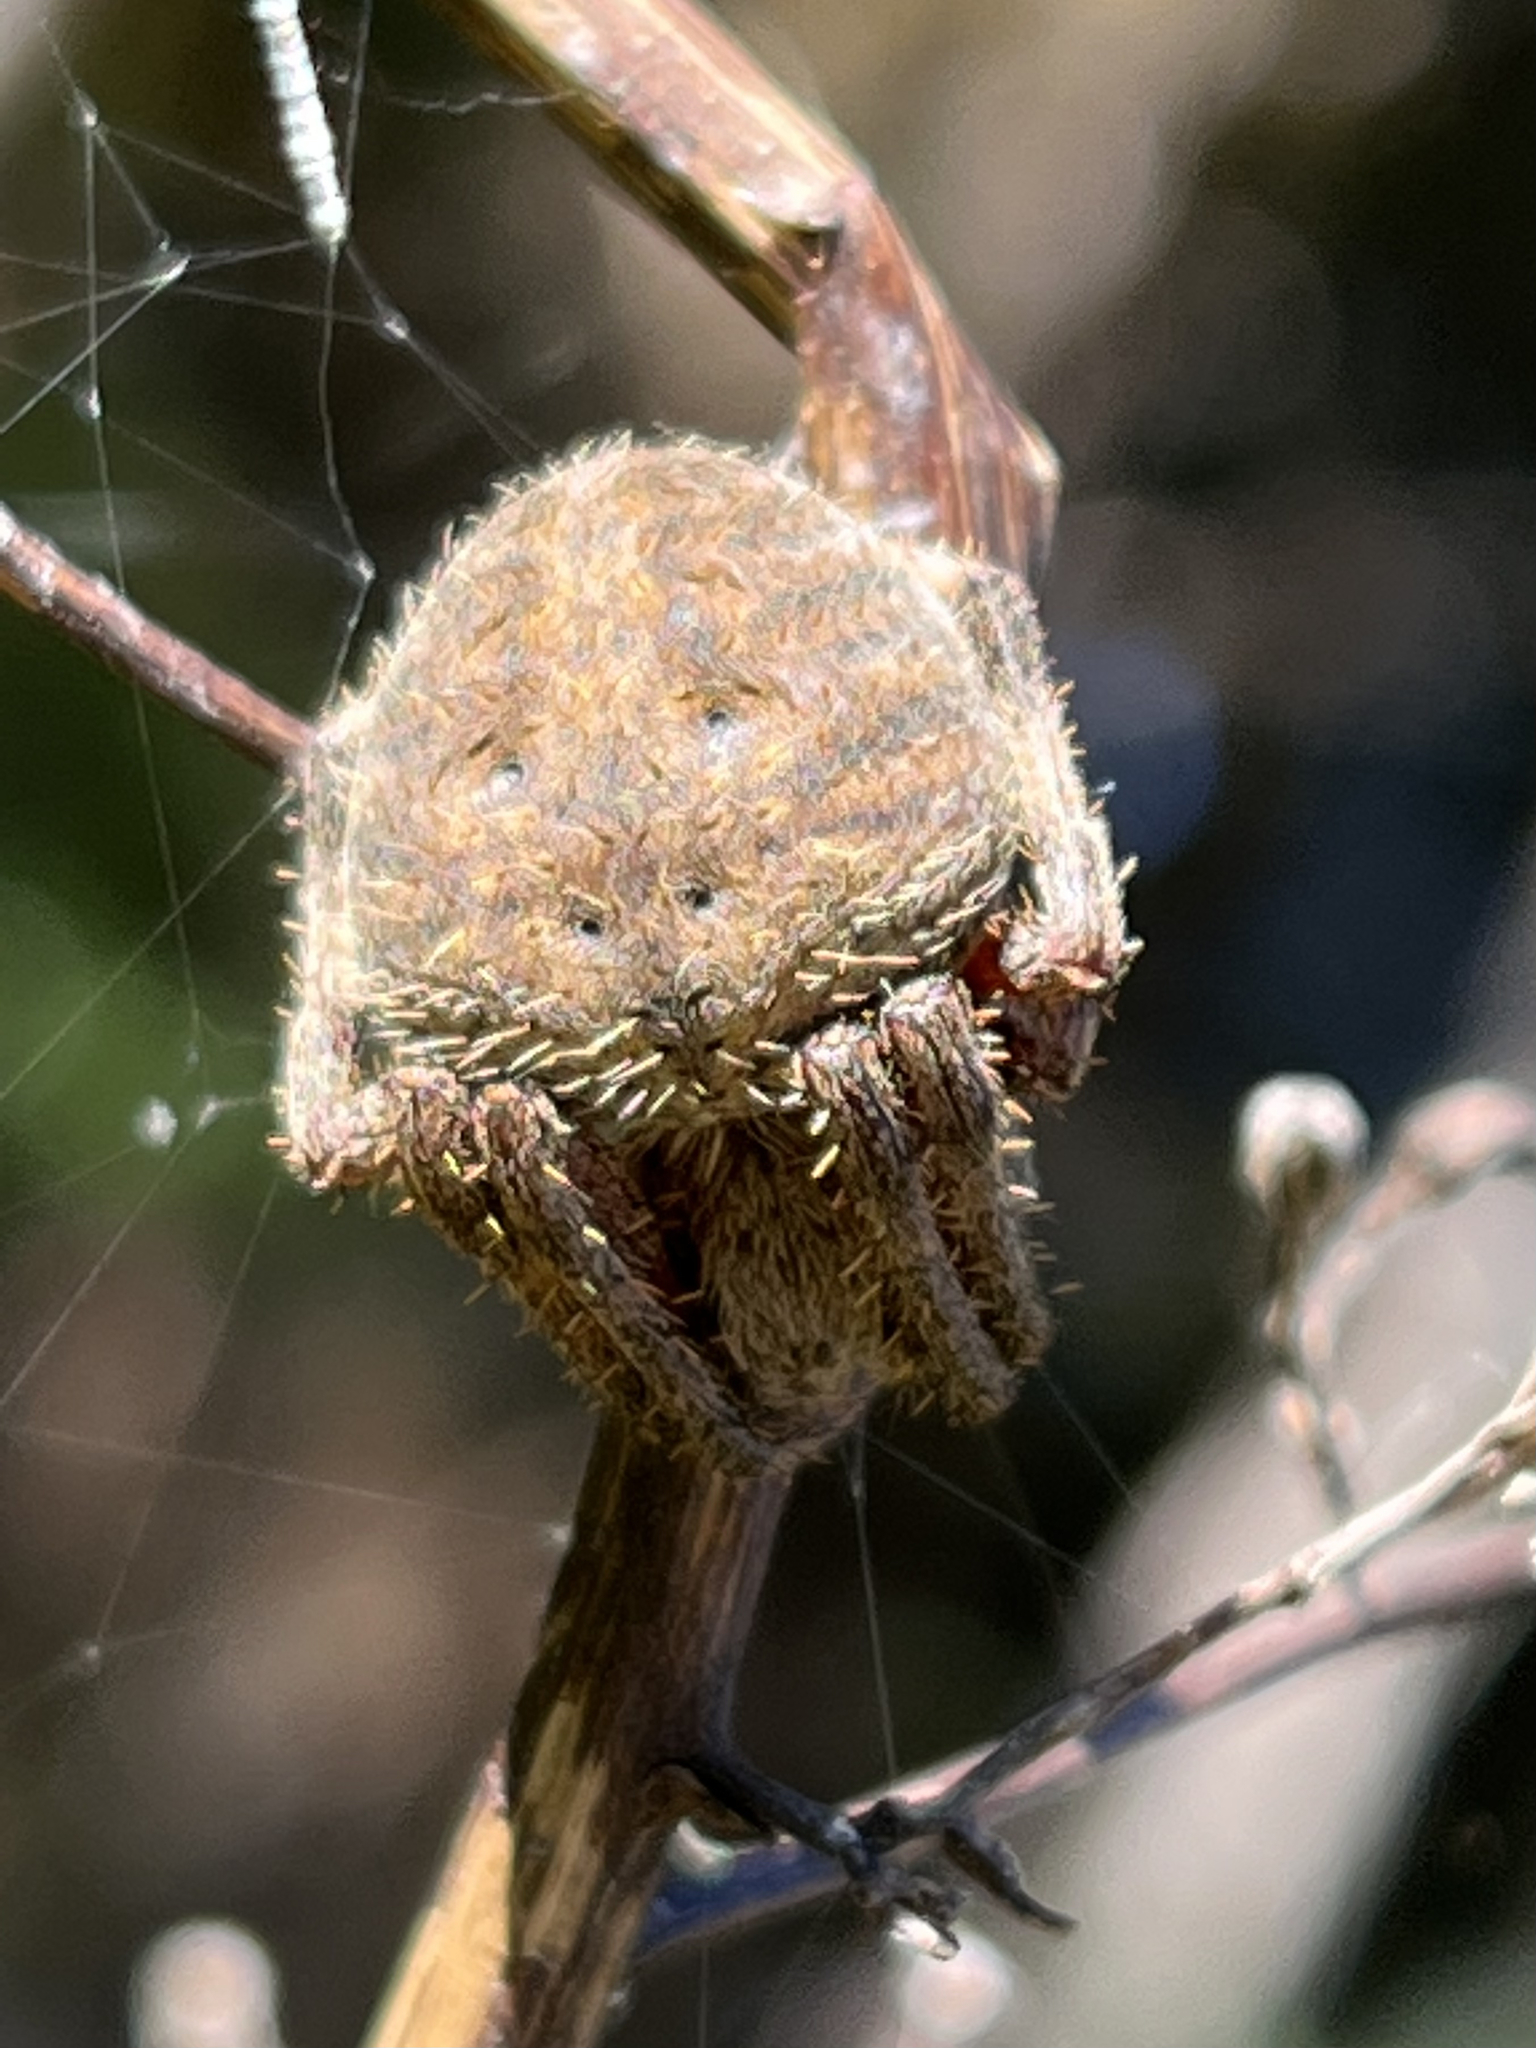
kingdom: Animalia
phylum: Arthropoda
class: Arachnida
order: Araneae
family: Araneidae
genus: Neoscona
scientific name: Neoscona crucifera
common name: Spotted orbweaver
